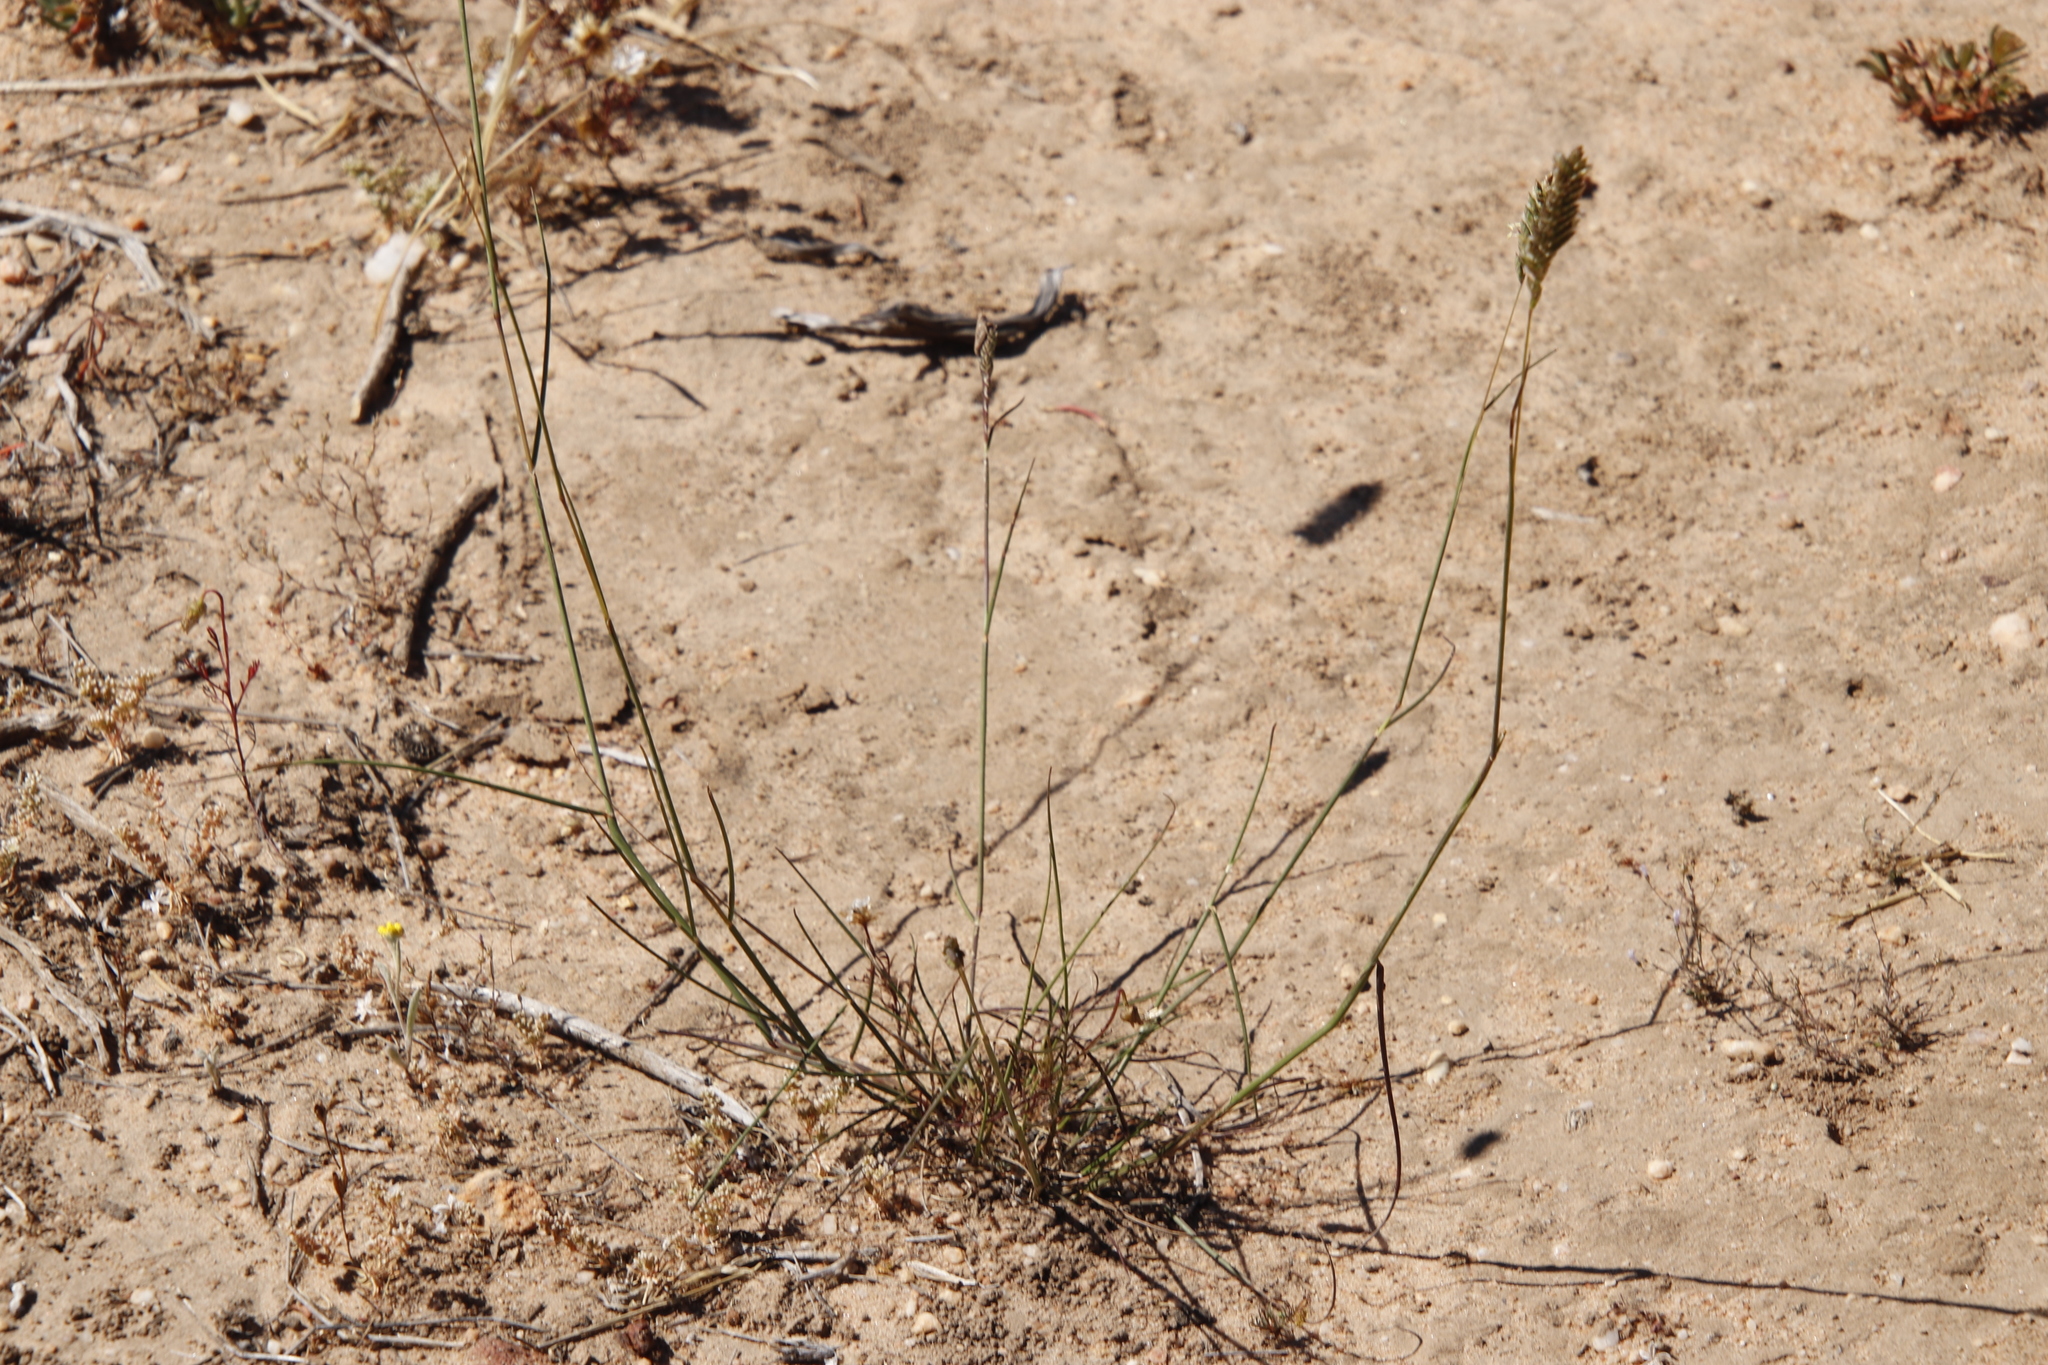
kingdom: Plantae
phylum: Tracheophyta
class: Liliopsida
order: Poales
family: Poaceae
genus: Tribolium
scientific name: Tribolium uniolae
